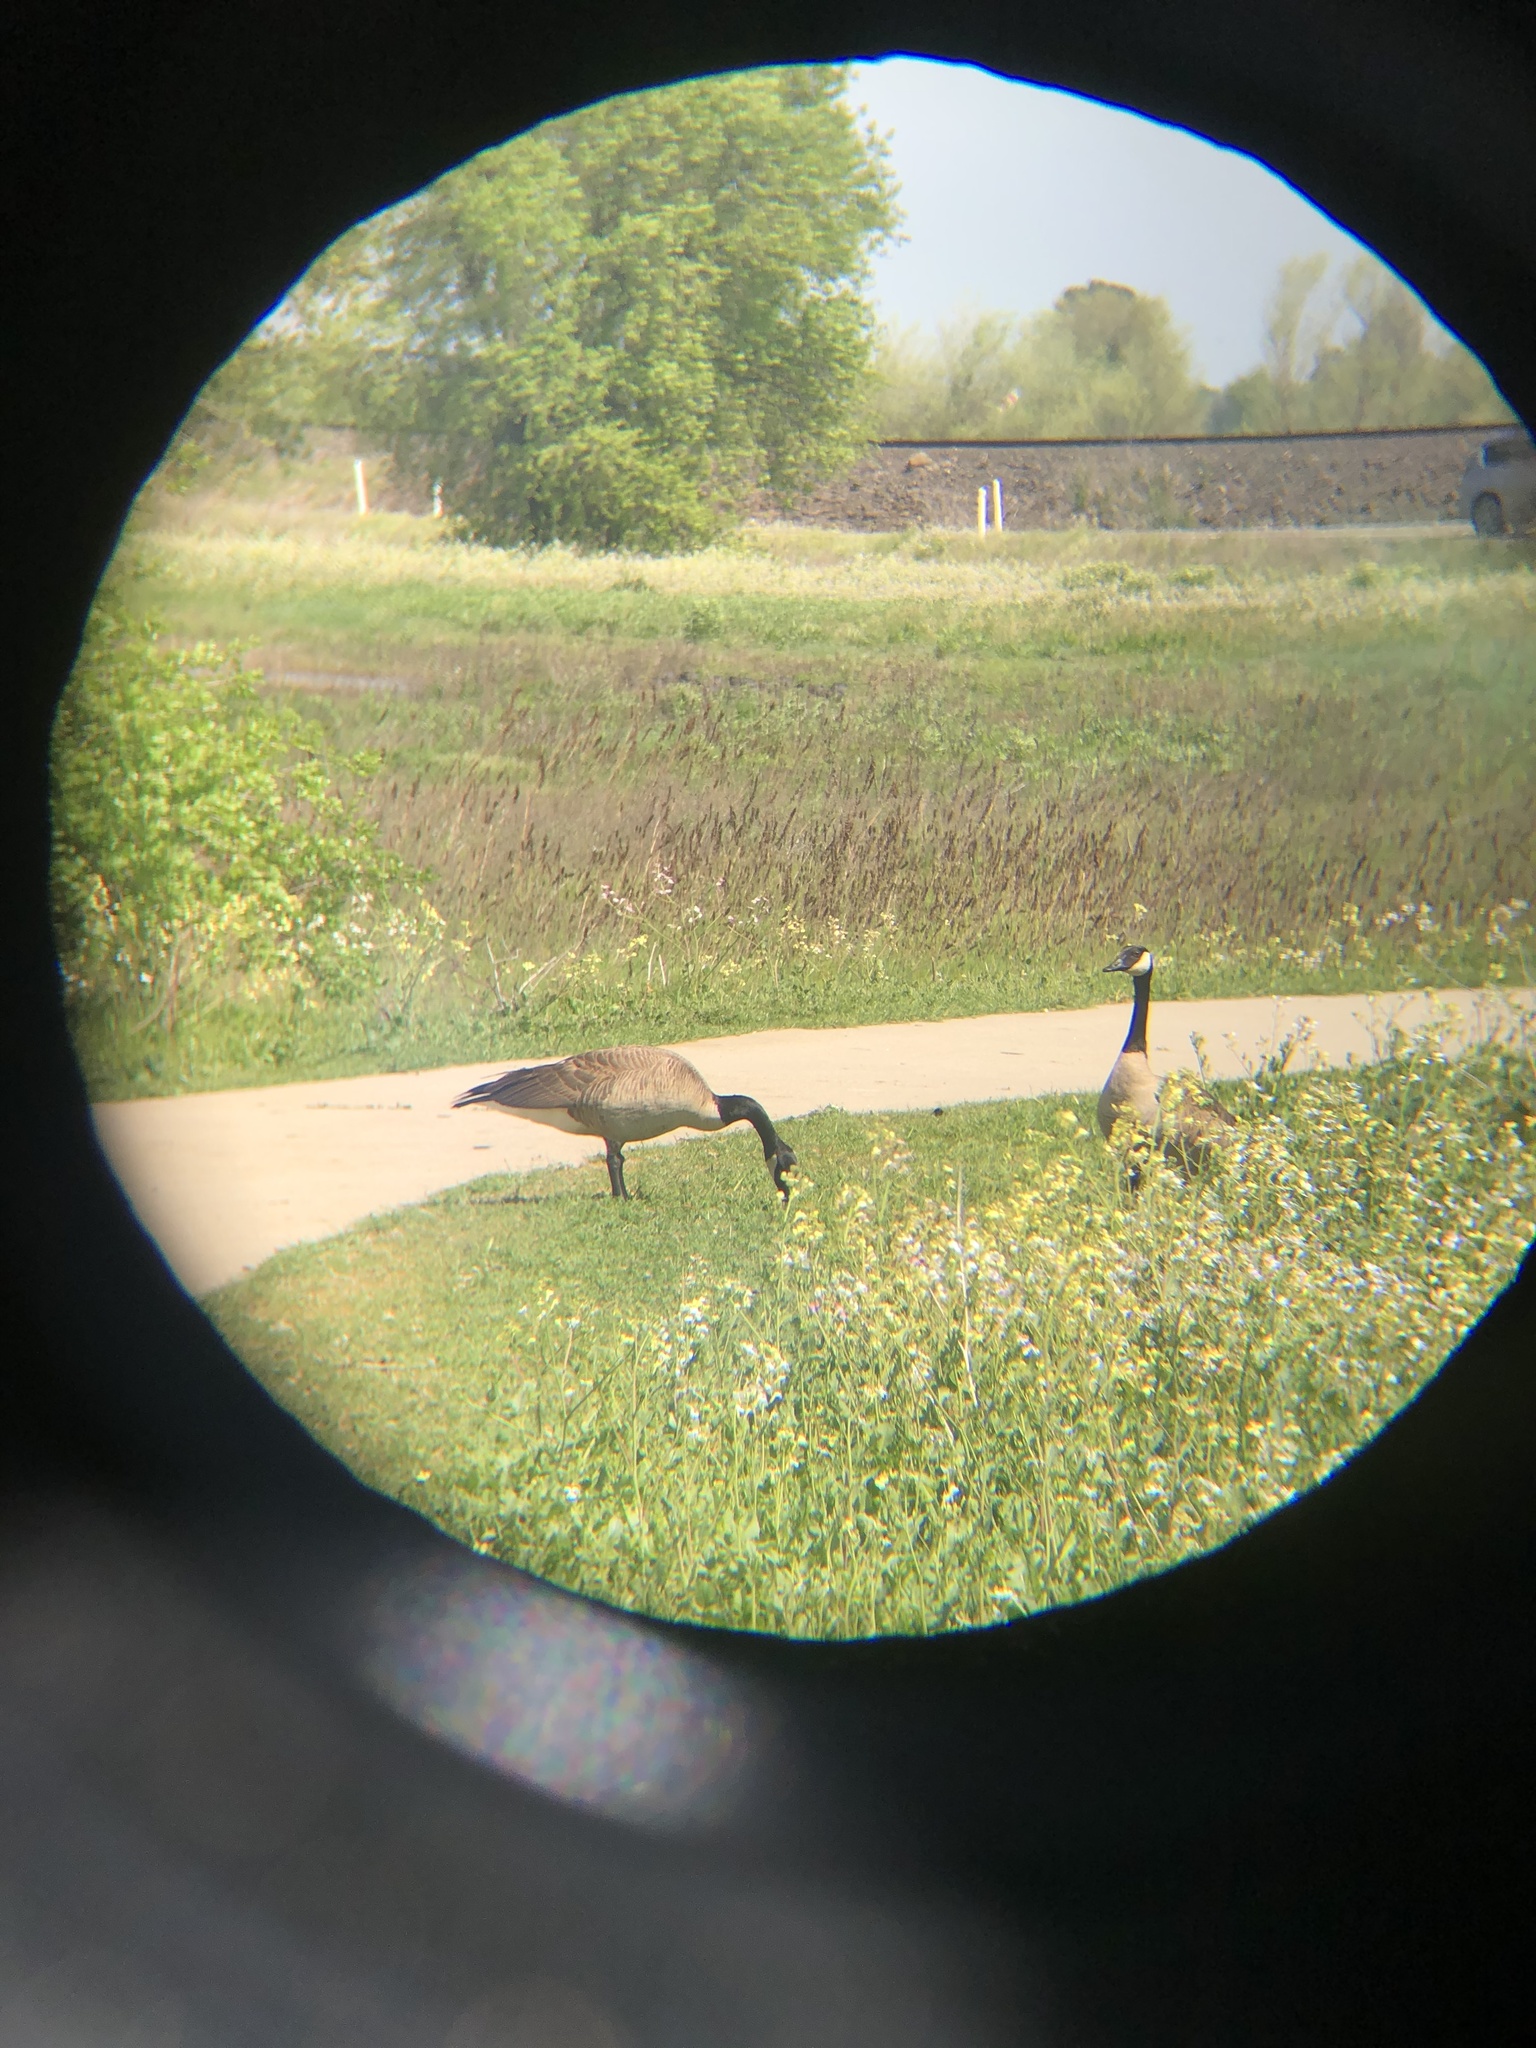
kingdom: Animalia
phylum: Chordata
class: Aves
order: Anseriformes
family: Anatidae
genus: Branta
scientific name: Branta canadensis
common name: Canada goose
